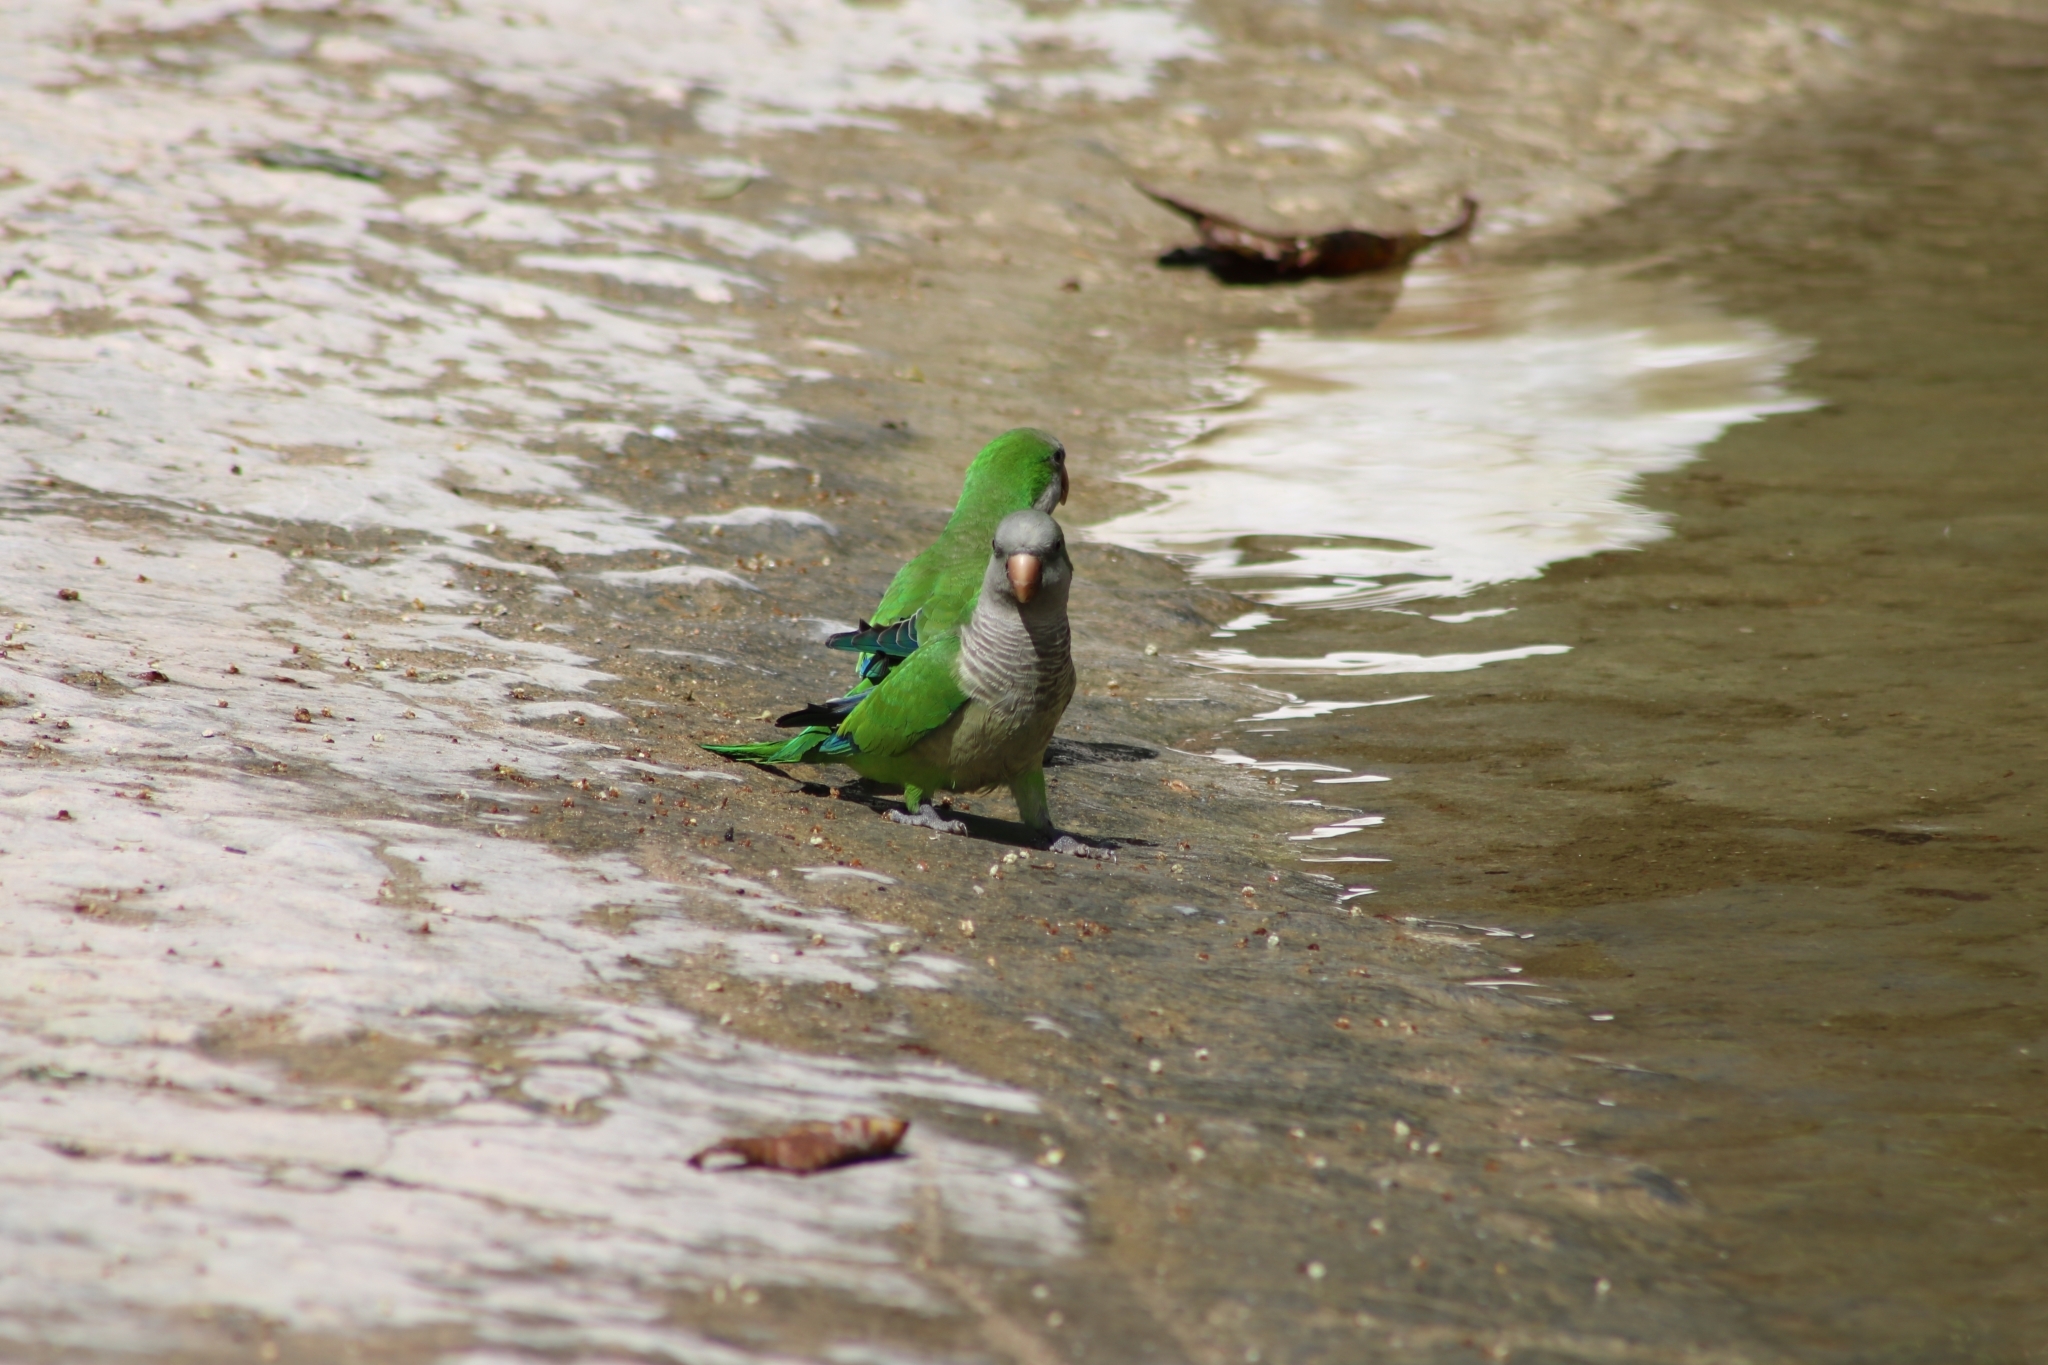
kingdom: Animalia
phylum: Chordata
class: Aves
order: Psittaciformes
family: Psittacidae
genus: Myiopsitta
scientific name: Myiopsitta monachus
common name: Monk parakeet
